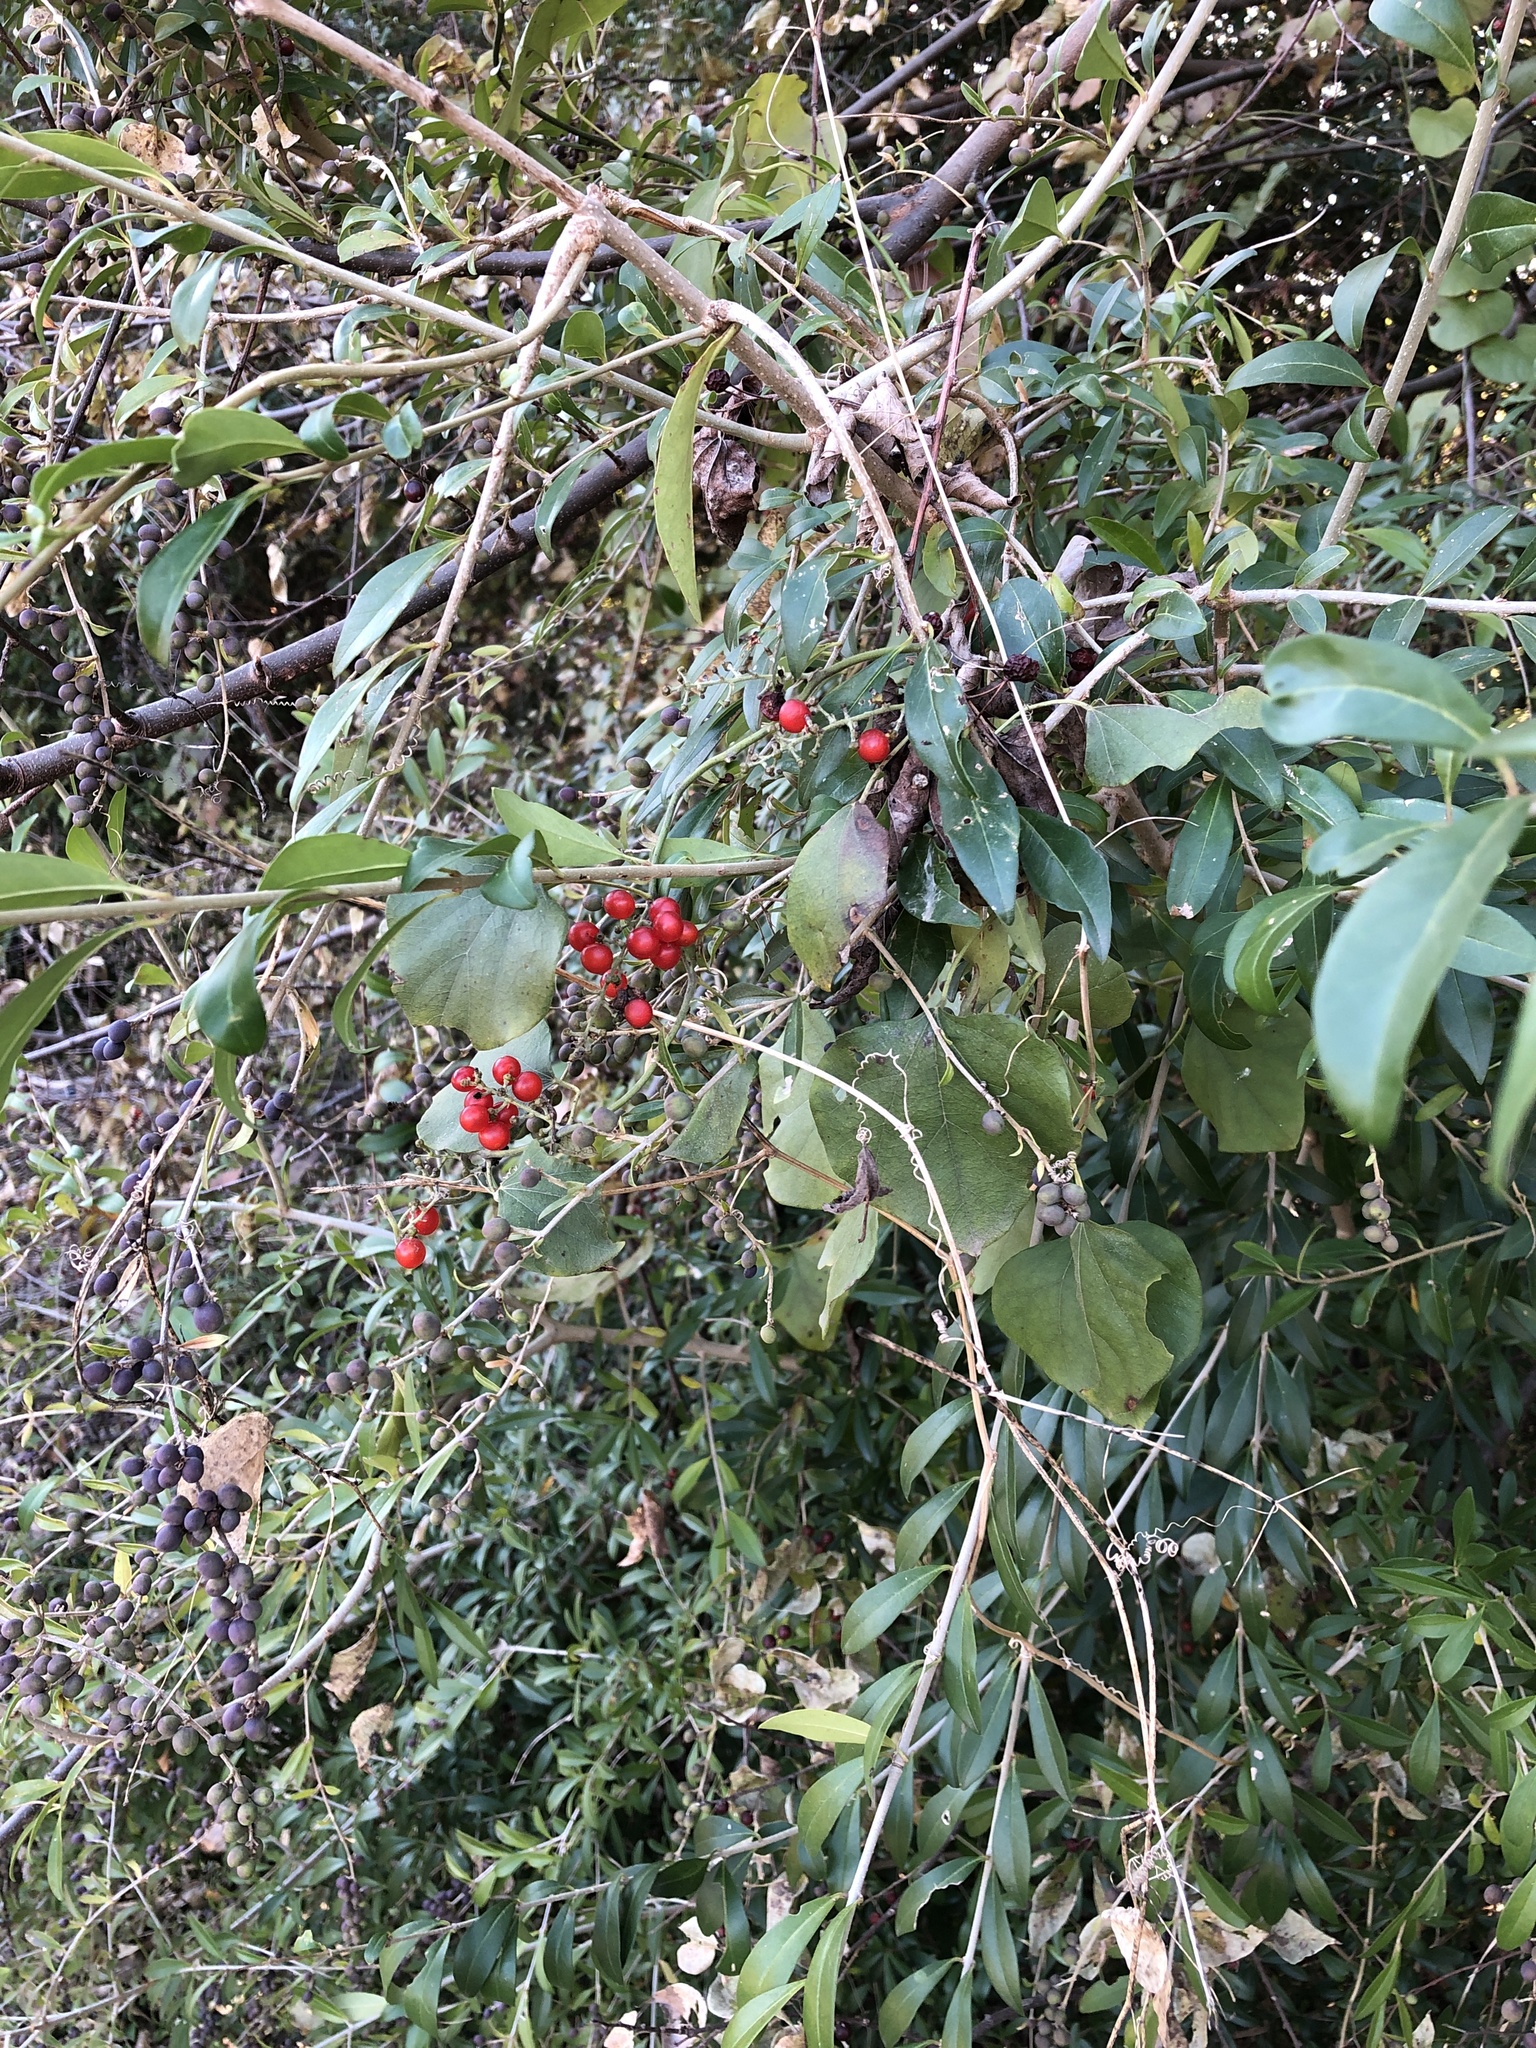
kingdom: Plantae
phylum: Tracheophyta
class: Magnoliopsida
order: Ranunculales
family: Menispermaceae
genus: Cocculus
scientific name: Cocculus carolinus
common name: Carolina moonseed
